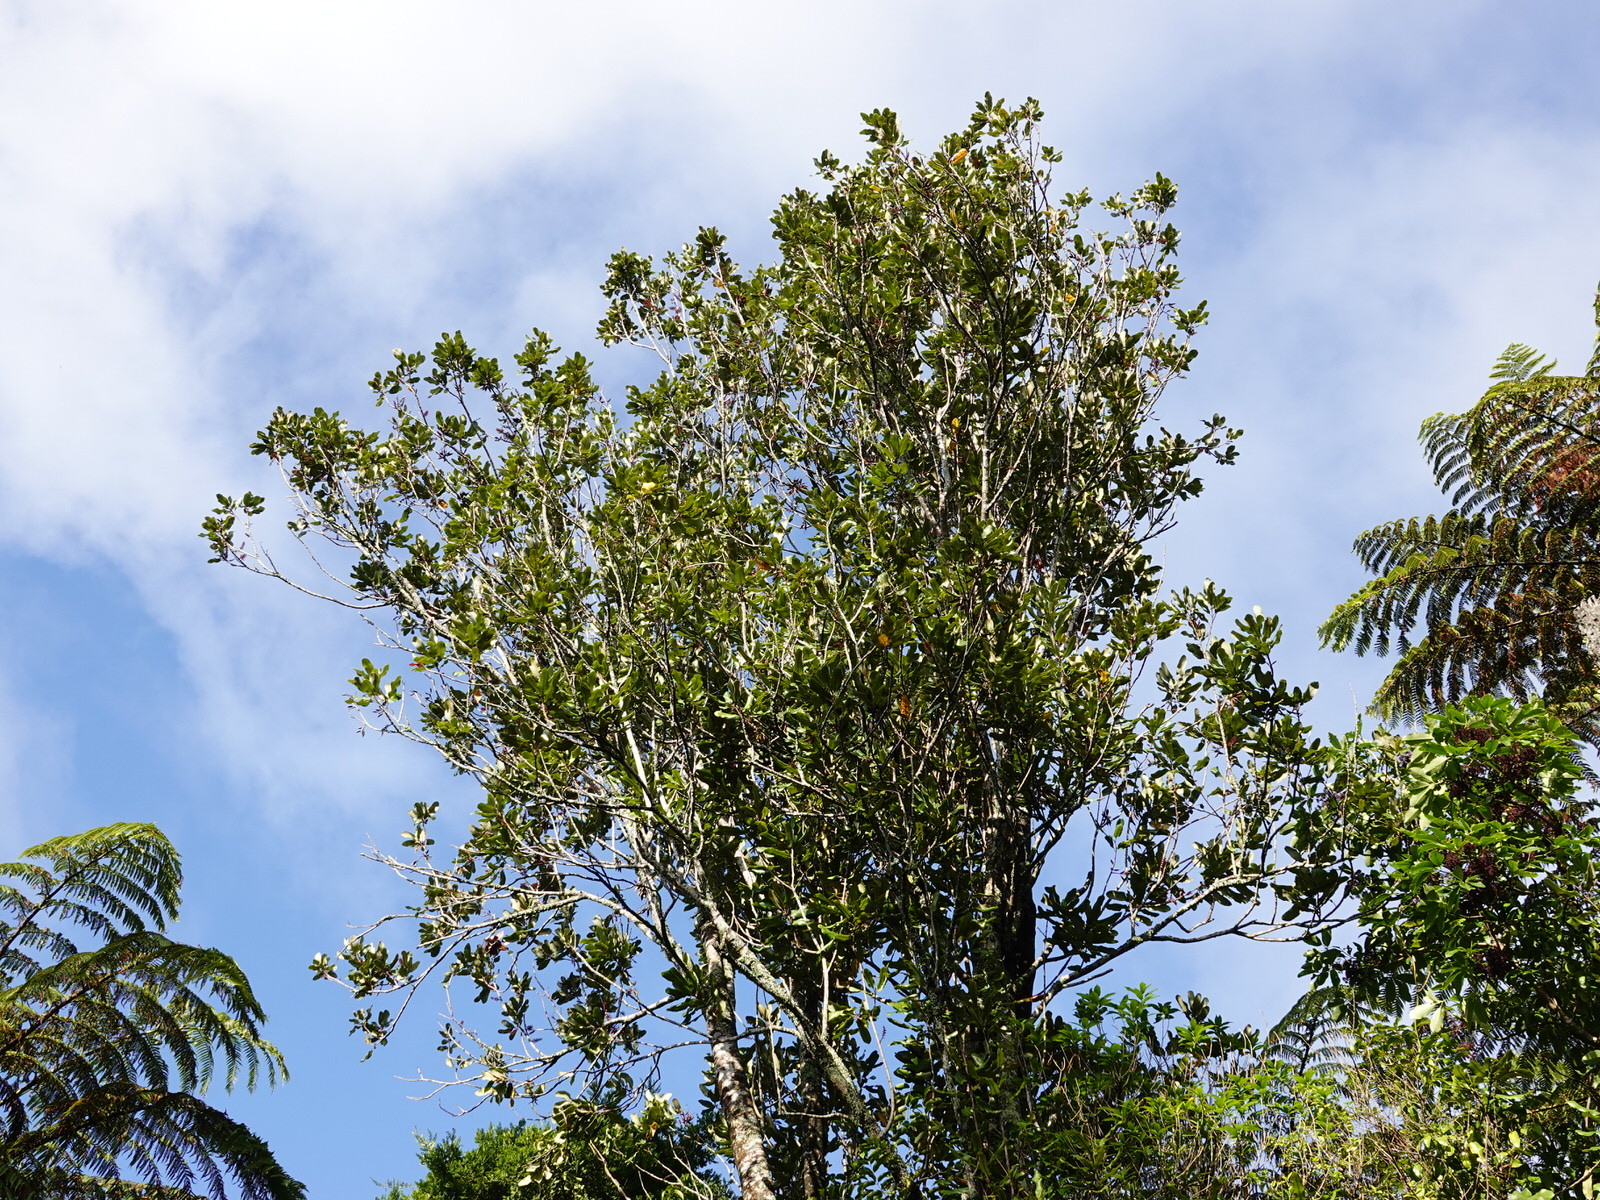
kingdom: Plantae
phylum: Tracheophyta
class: Magnoliopsida
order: Proteales
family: Proteaceae
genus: Knightia
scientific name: Knightia excelsa
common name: New zealand-honeysuckle
